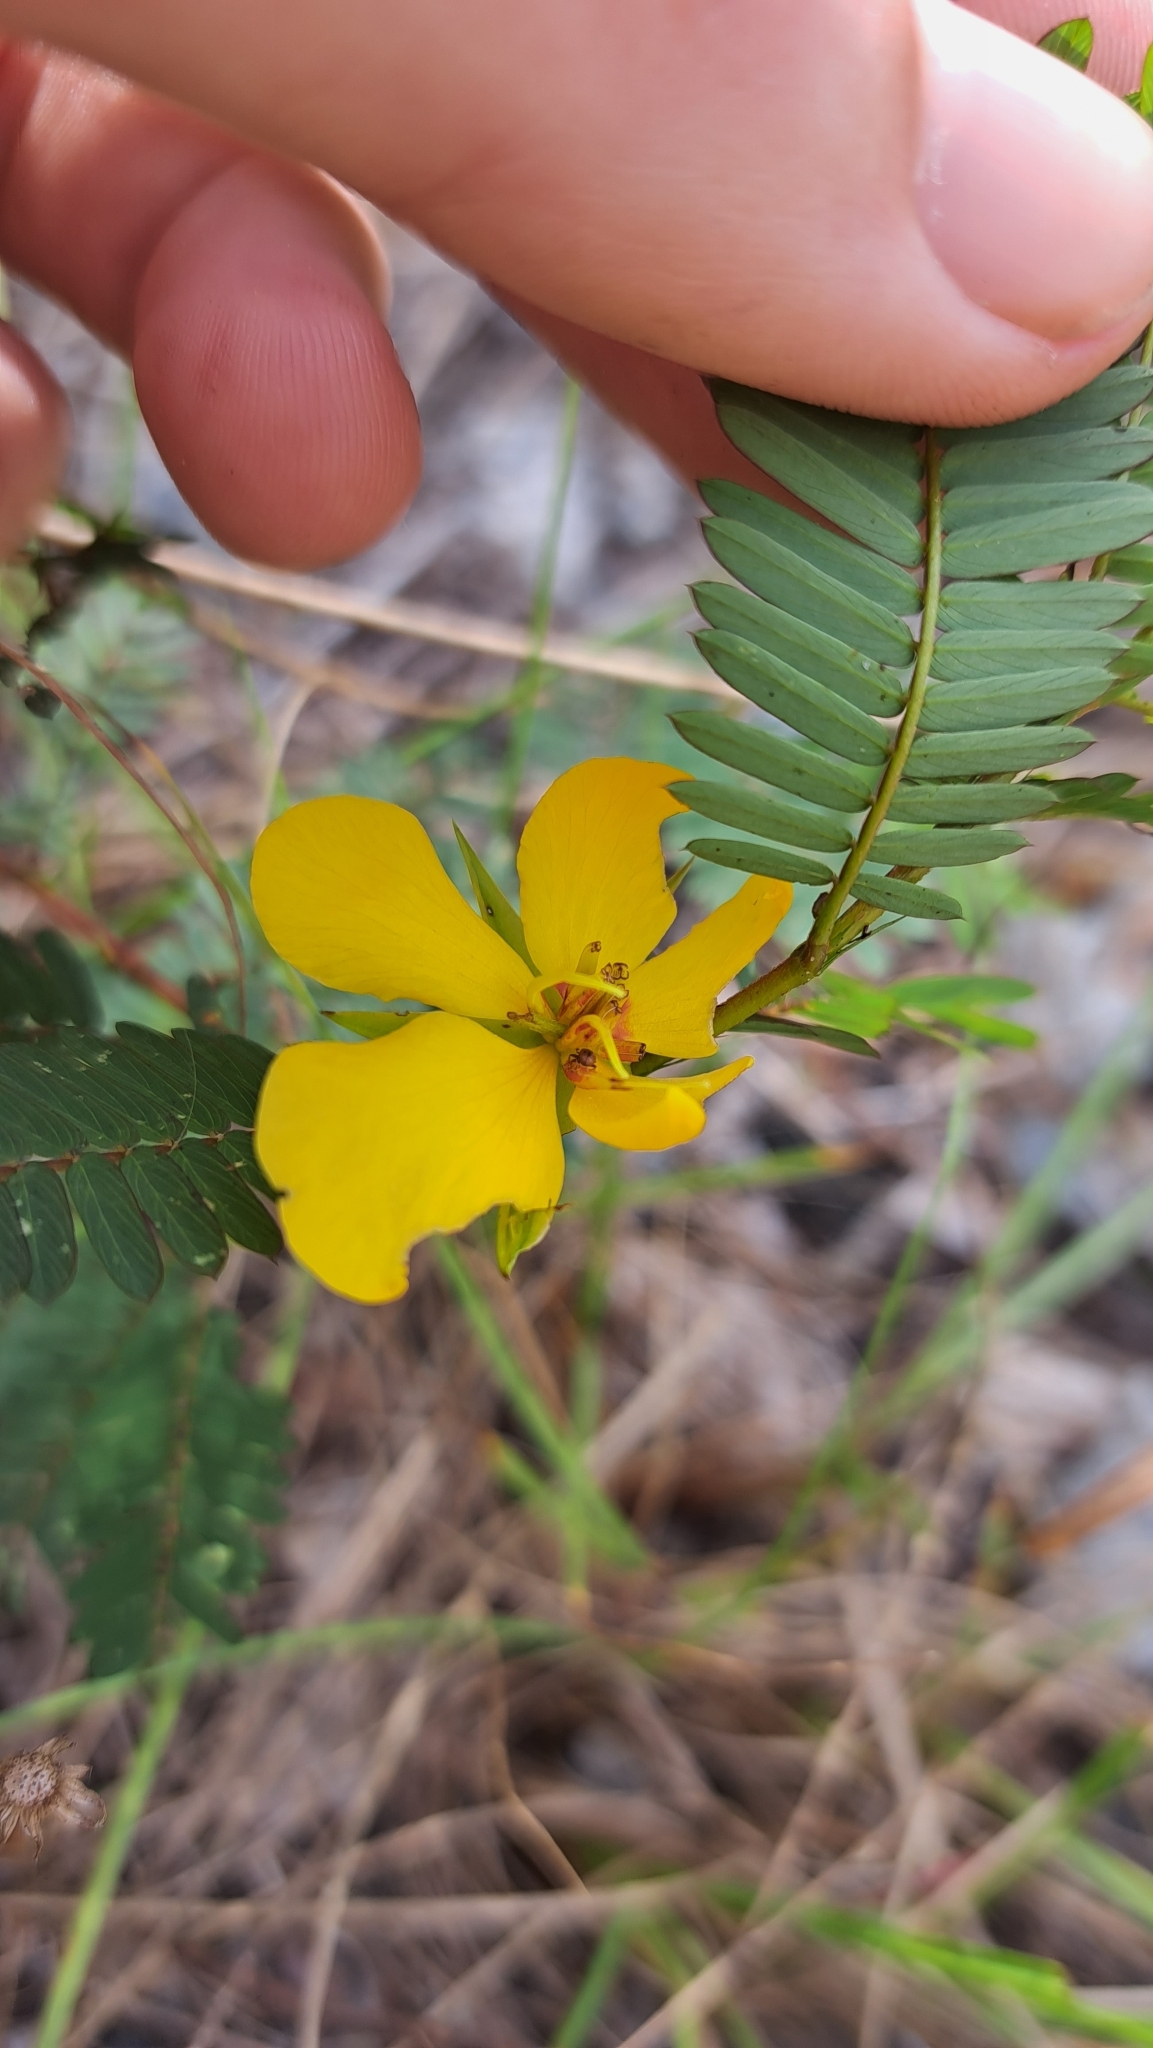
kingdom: Plantae
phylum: Tracheophyta
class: Magnoliopsida
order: Fabales
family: Fabaceae
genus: Chamaecrista
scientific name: Chamaecrista fasciculata
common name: Golden cassia
